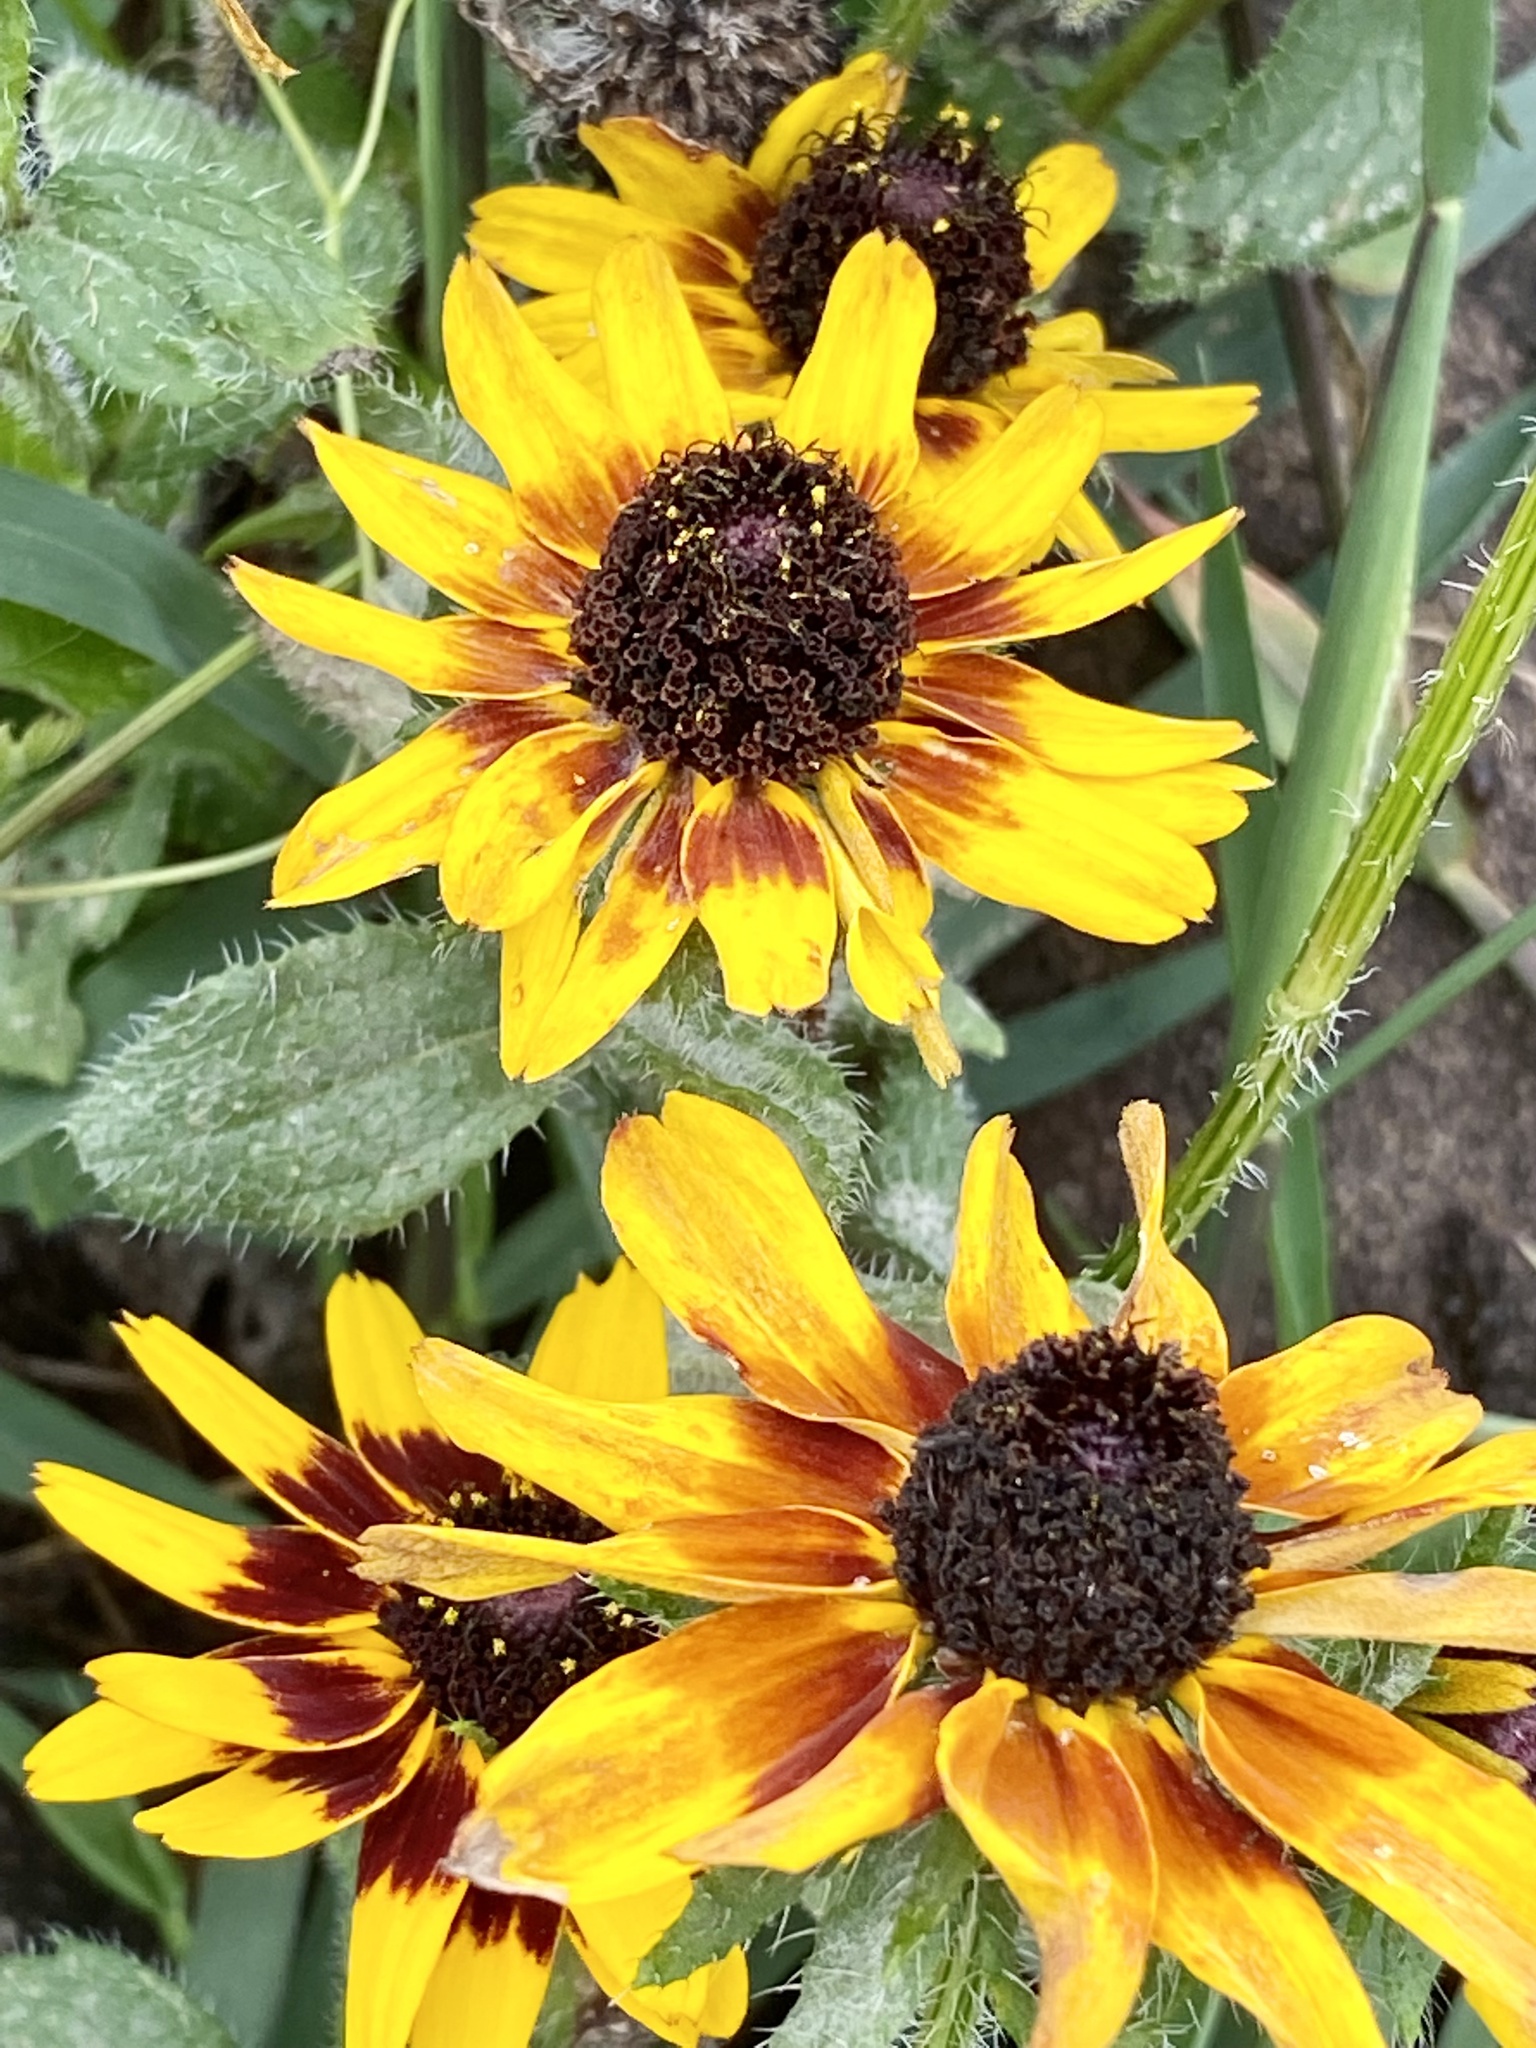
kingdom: Plantae
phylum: Tracheophyta
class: Magnoliopsida
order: Asterales
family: Asteraceae
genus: Rudbeckia
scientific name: Rudbeckia hirta
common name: Black-eyed-susan
